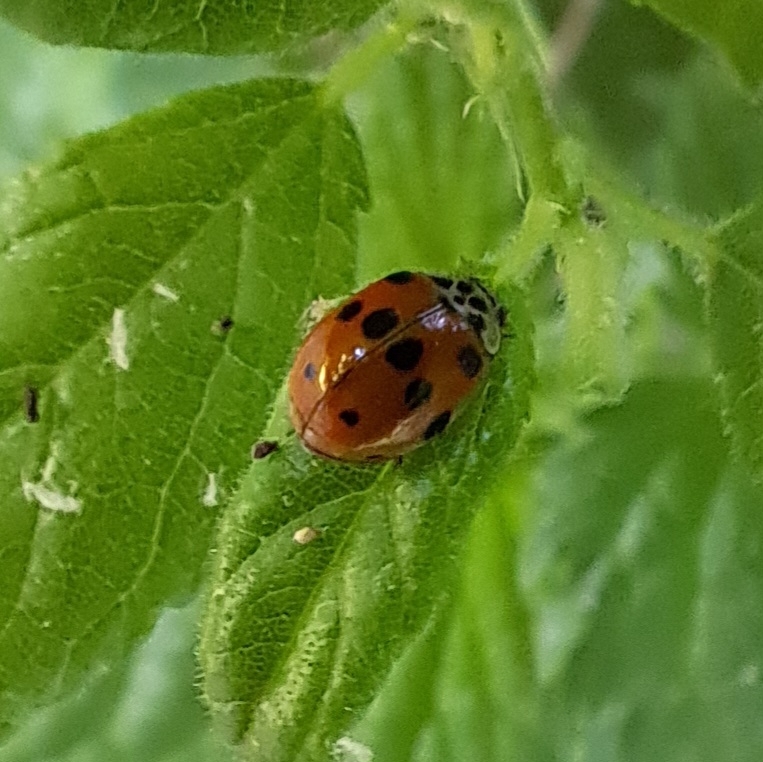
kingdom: Animalia
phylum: Arthropoda
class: Insecta
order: Coleoptera
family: Coccinellidae
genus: Adalia
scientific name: Adalia decempunctata
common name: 10-spot ladybird
